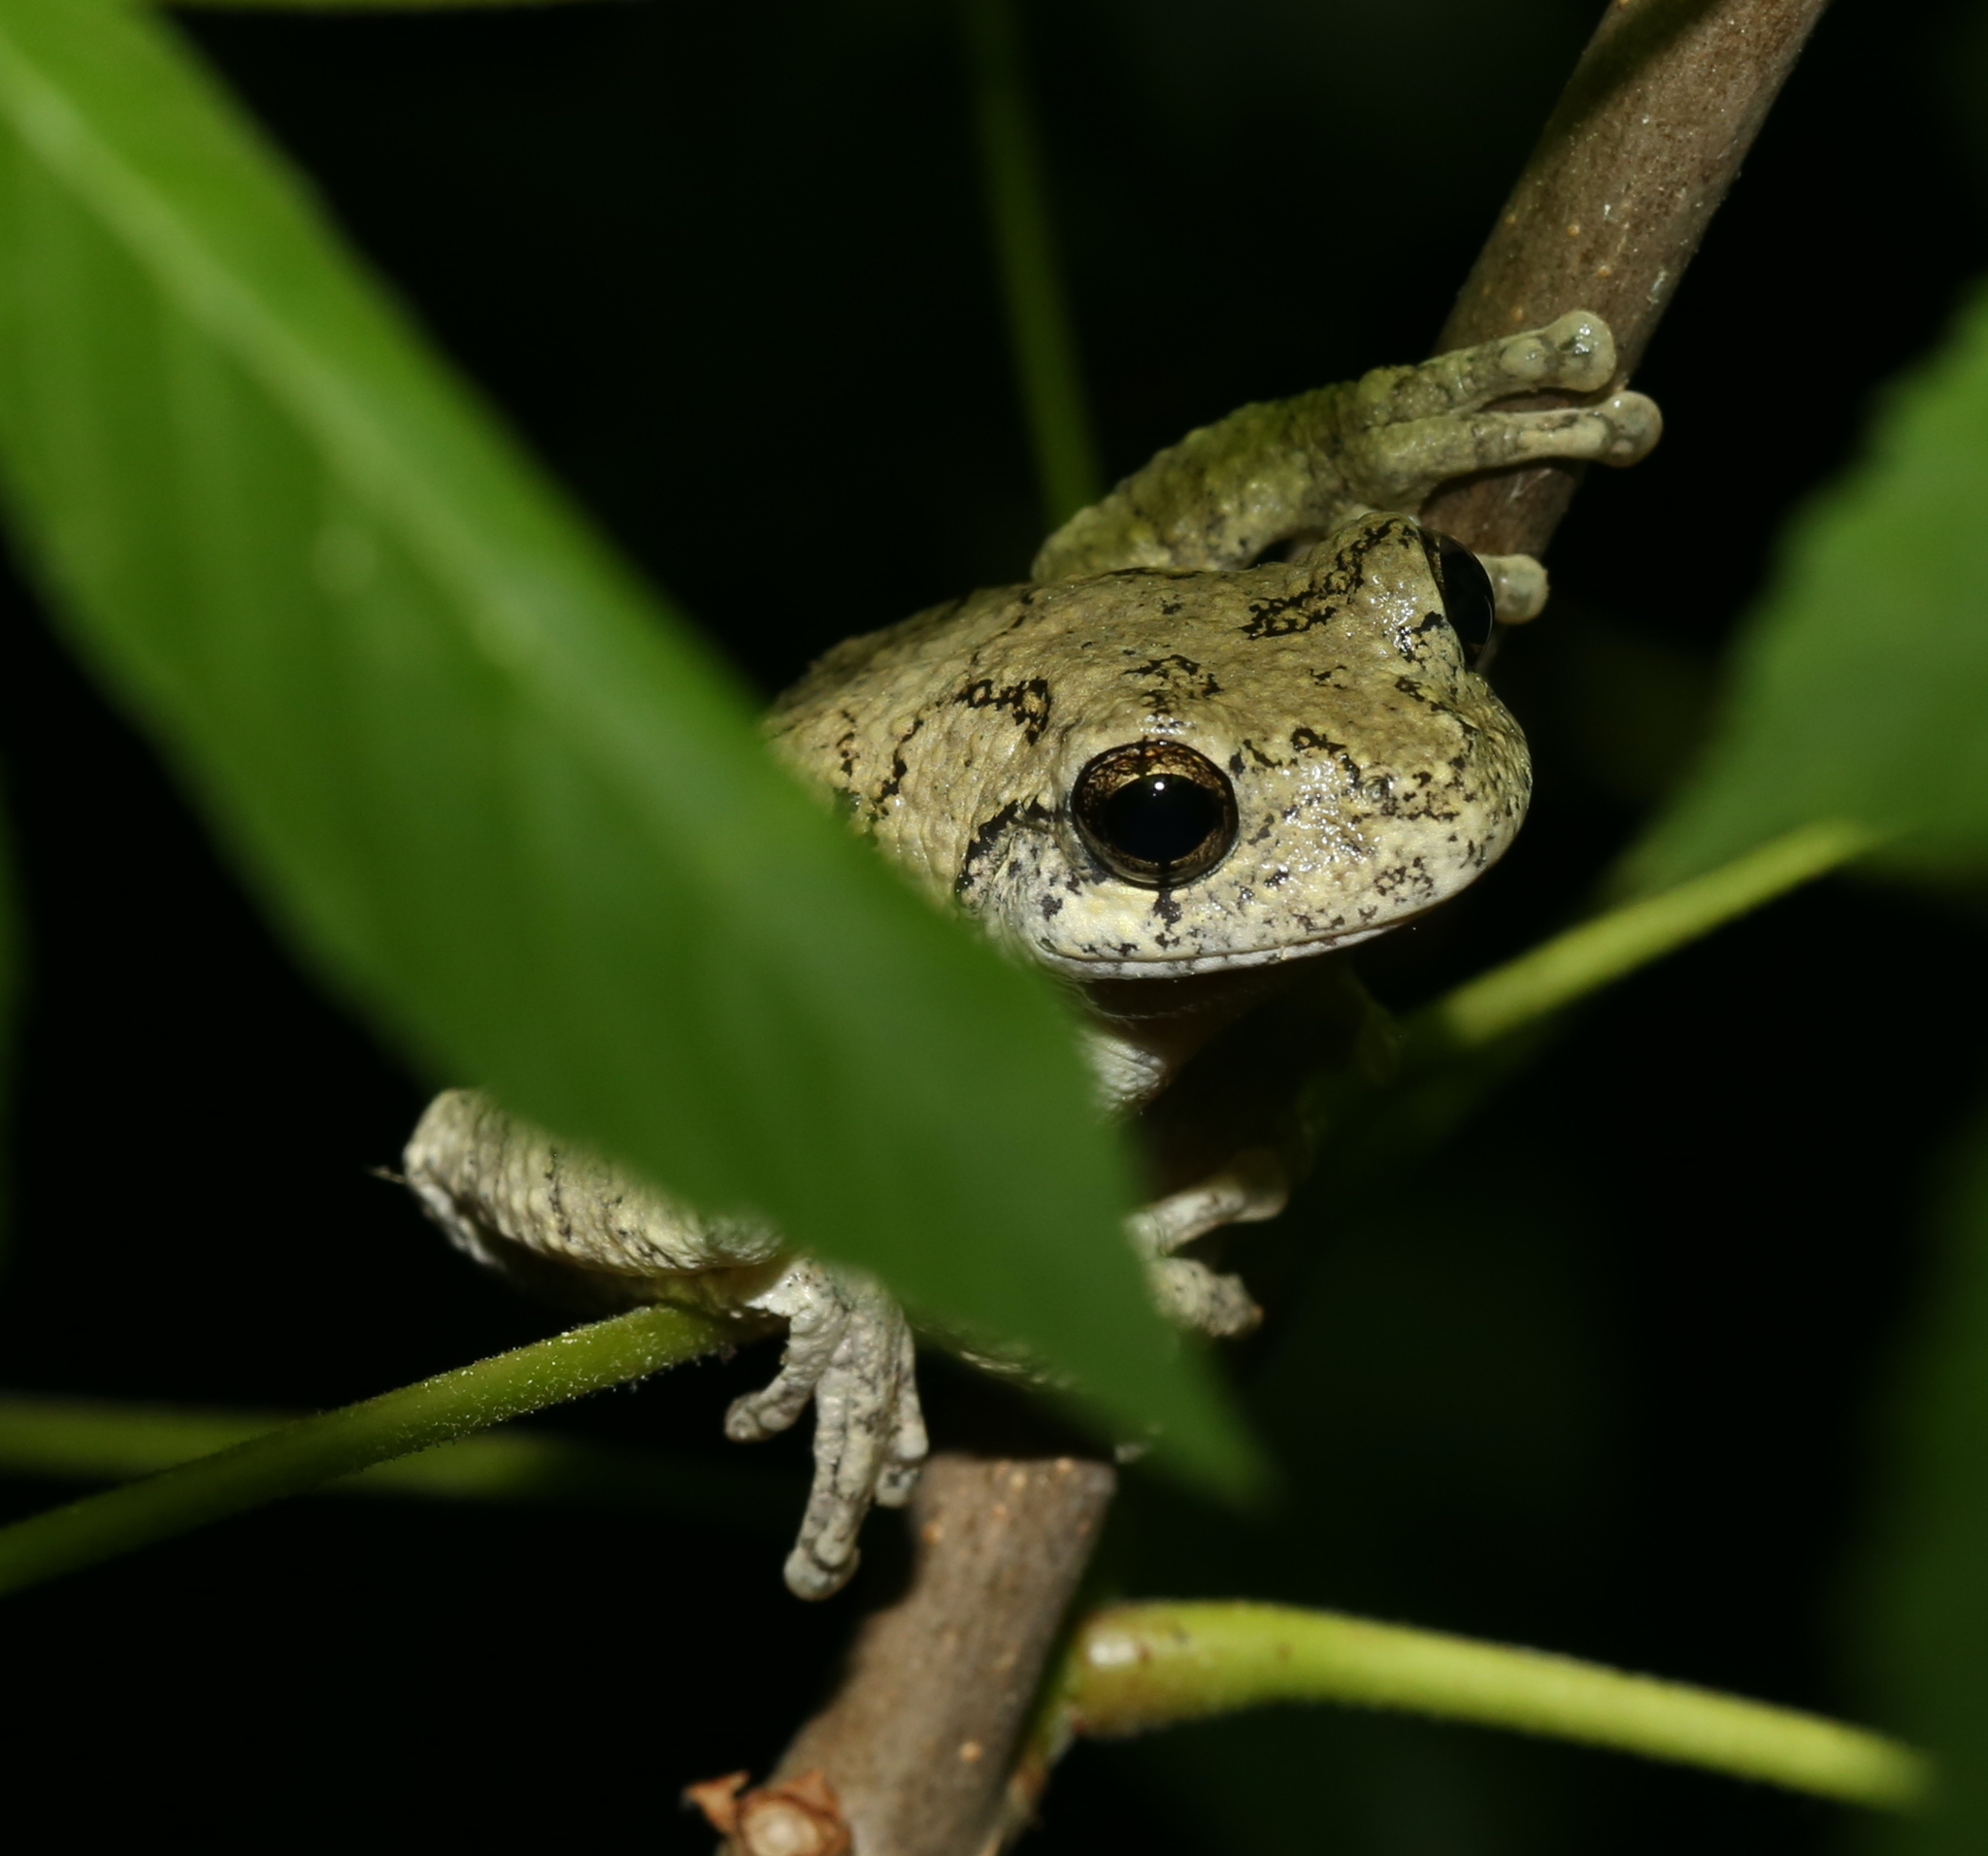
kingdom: Animalia
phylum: Chordata
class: Amphibia
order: Anura
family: Hylidae
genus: Dryophytes
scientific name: Dryophytes chrysoscelis
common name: Cope's gray treefrog
